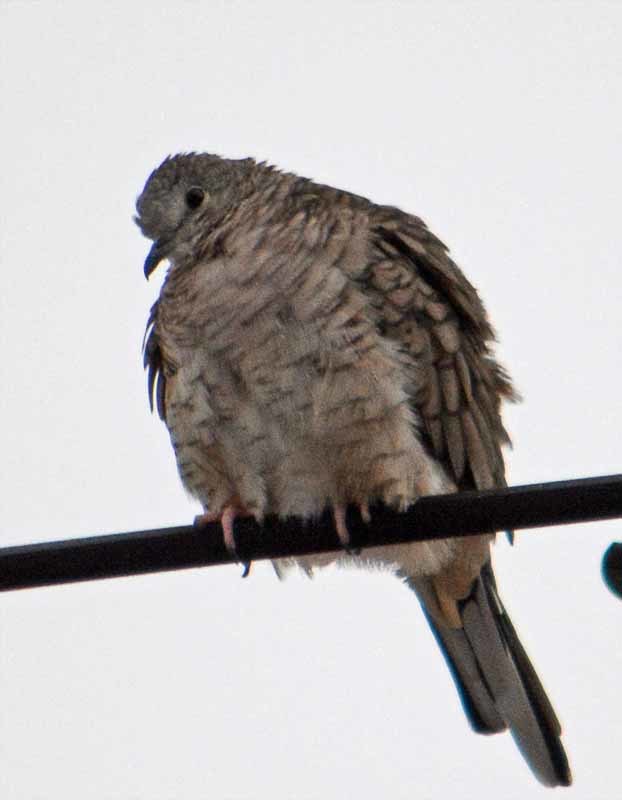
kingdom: Animalia
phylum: Chordata
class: Aves
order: Columbiformes
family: Columbidae
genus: Columbina
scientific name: Columbina inca
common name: Inca dove
